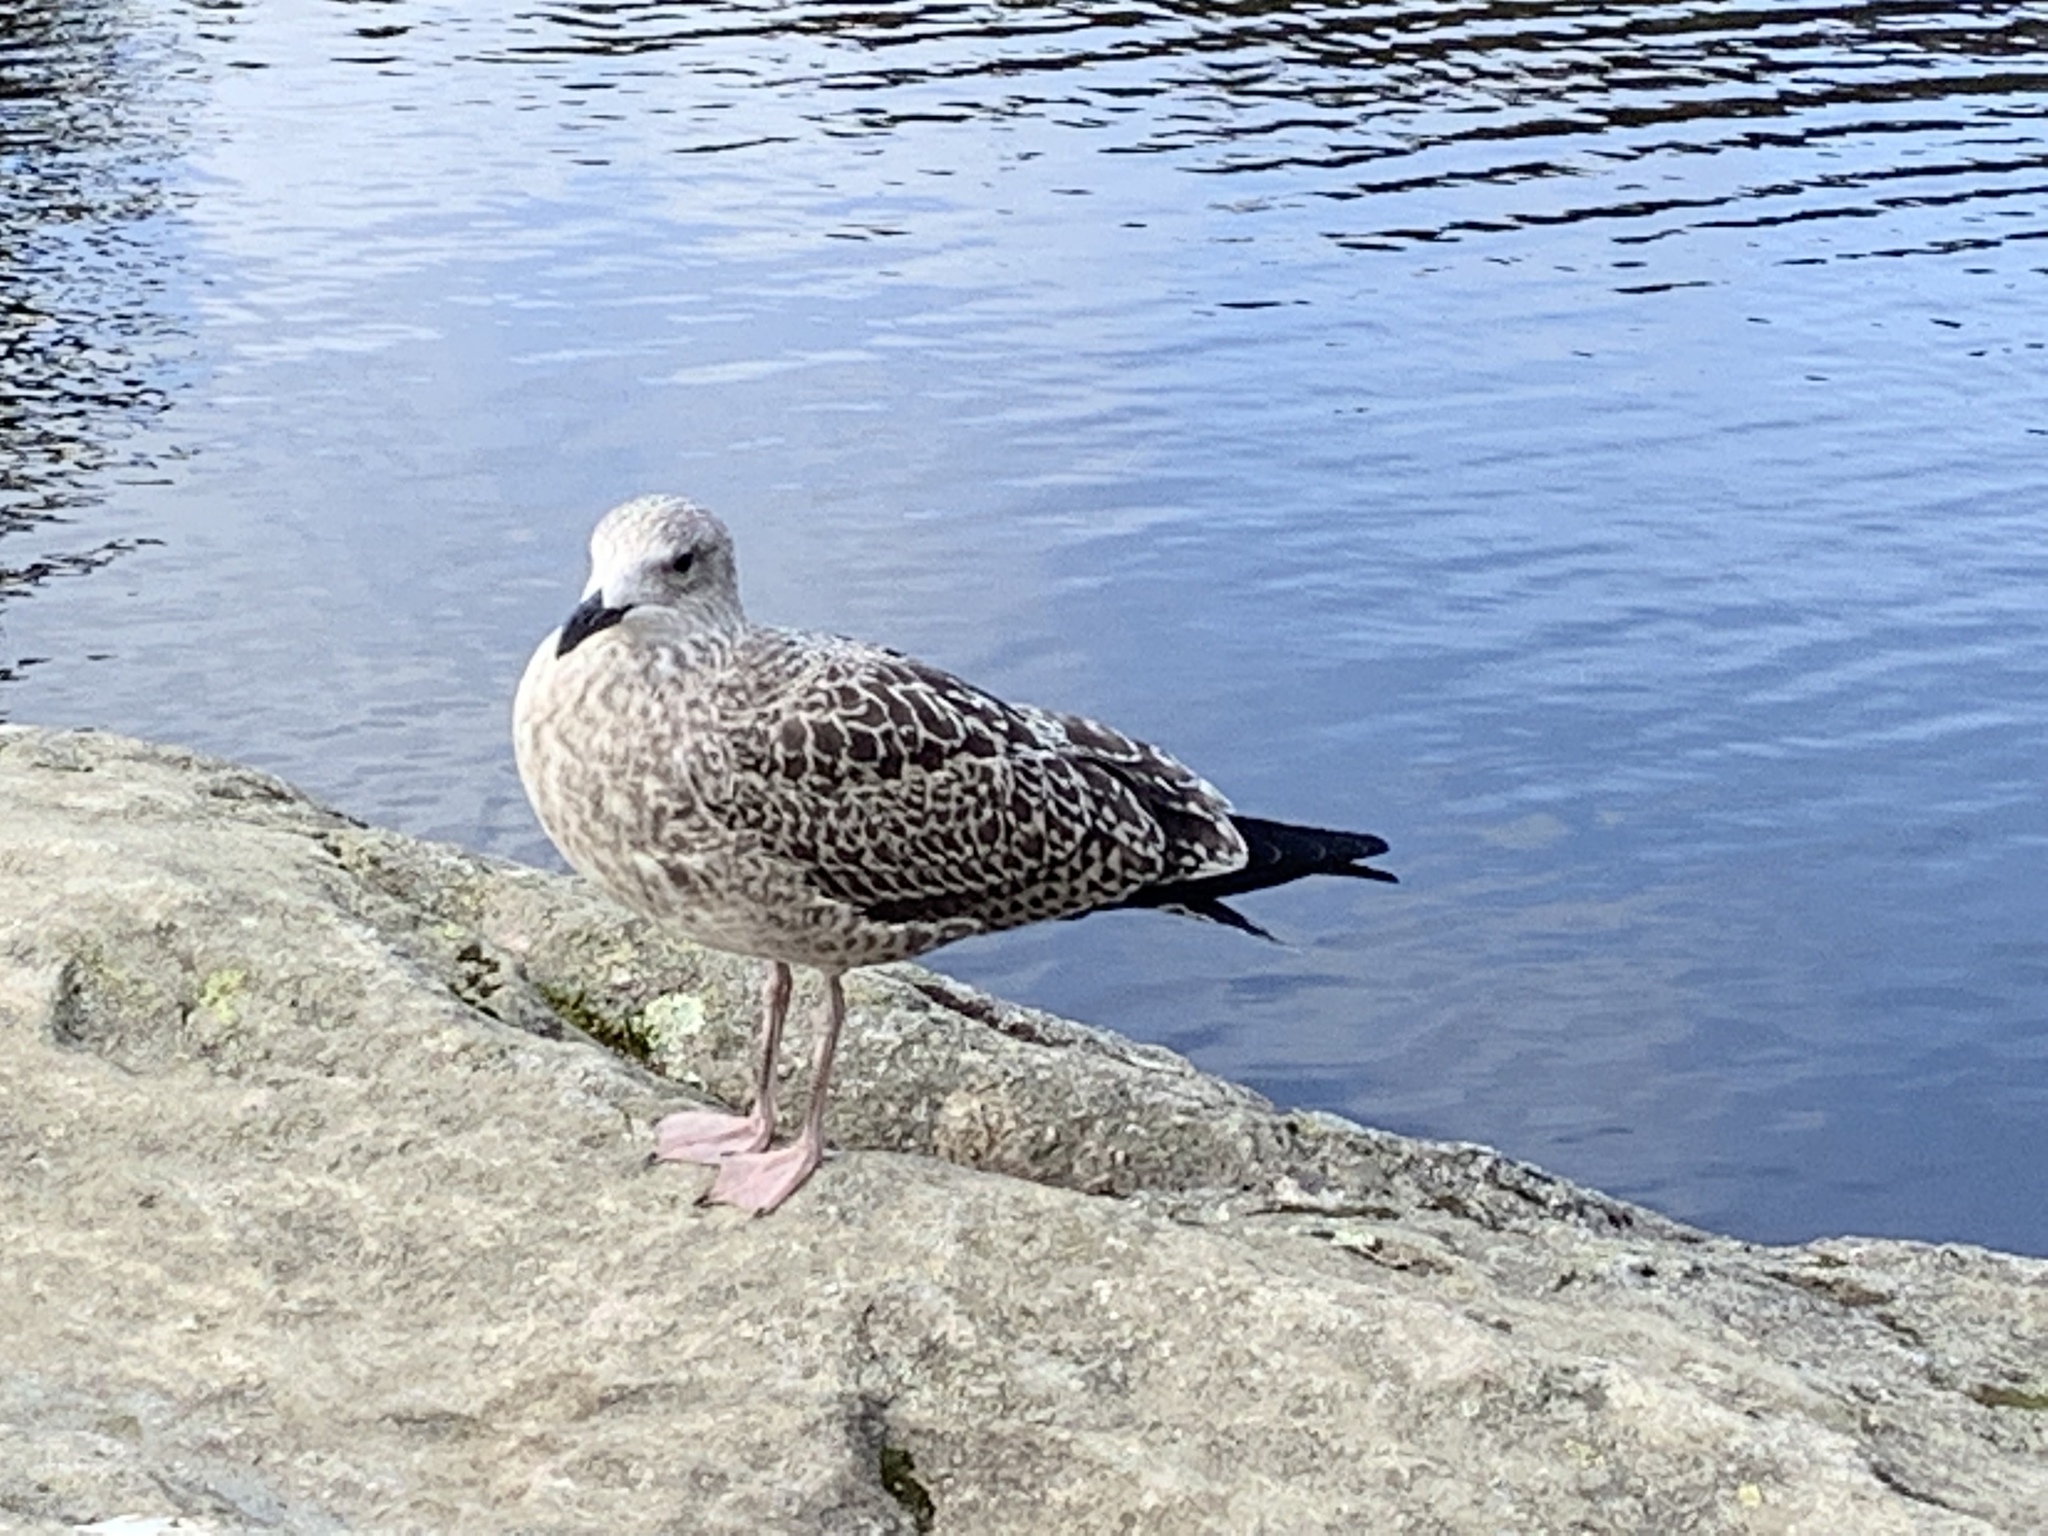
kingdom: Animalia
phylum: Chordata
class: Aves
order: Charadriiformes
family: Laridae
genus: Larus
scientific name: Larus fuscus
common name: Lesser black-backed gull
